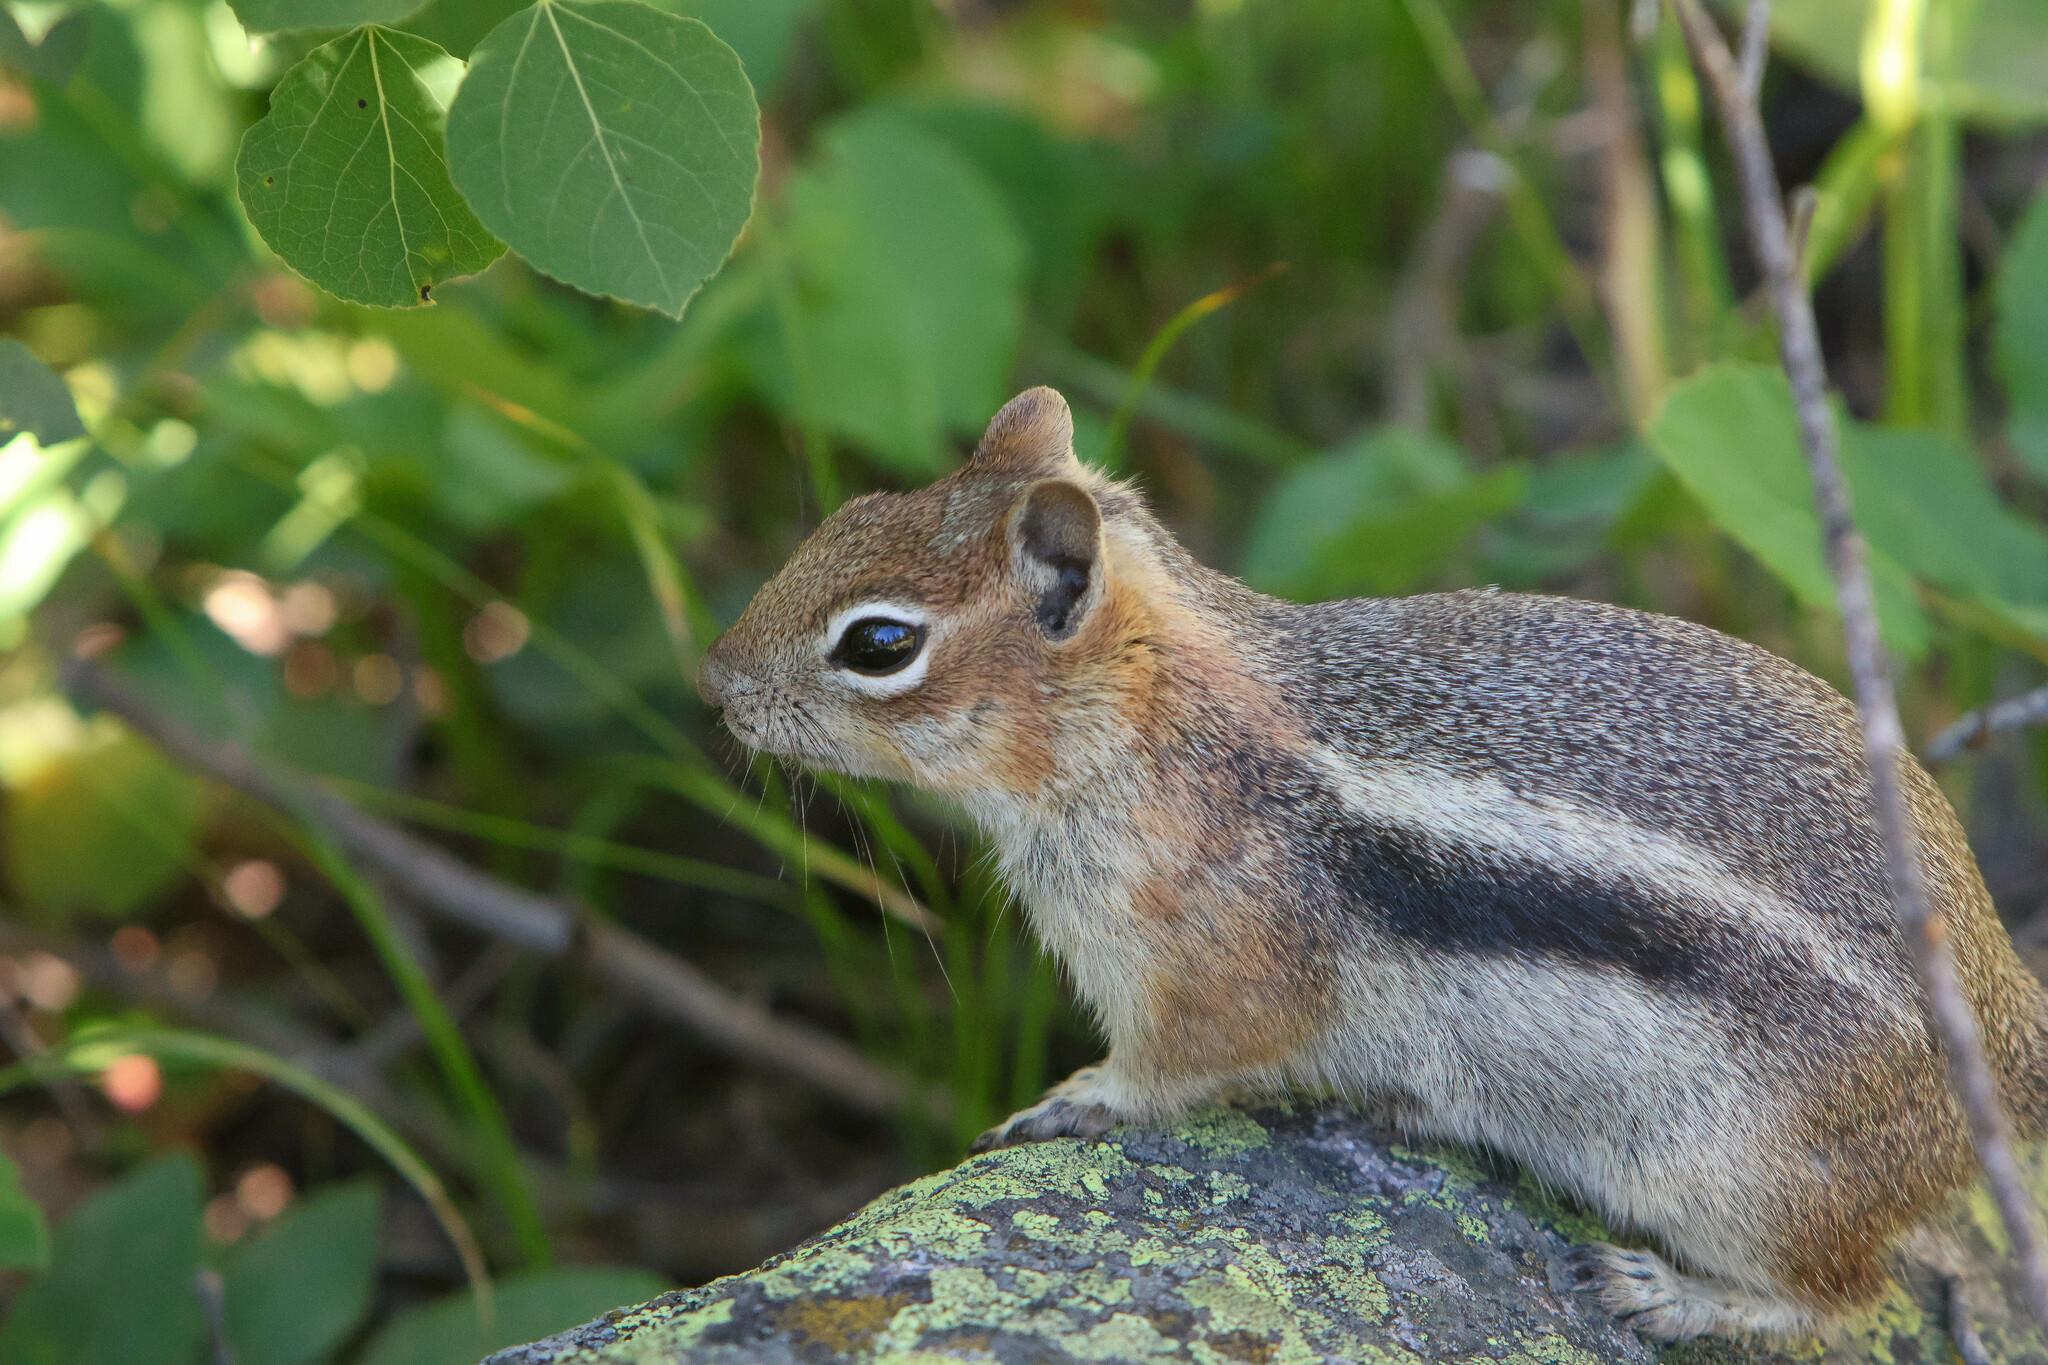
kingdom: Animalia
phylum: Chordata
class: Mammalia
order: Rodentia
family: Sciuridae
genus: Callospermophilus
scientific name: Callospermophilus lateralis
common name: Golden-mantled ground squirrel
